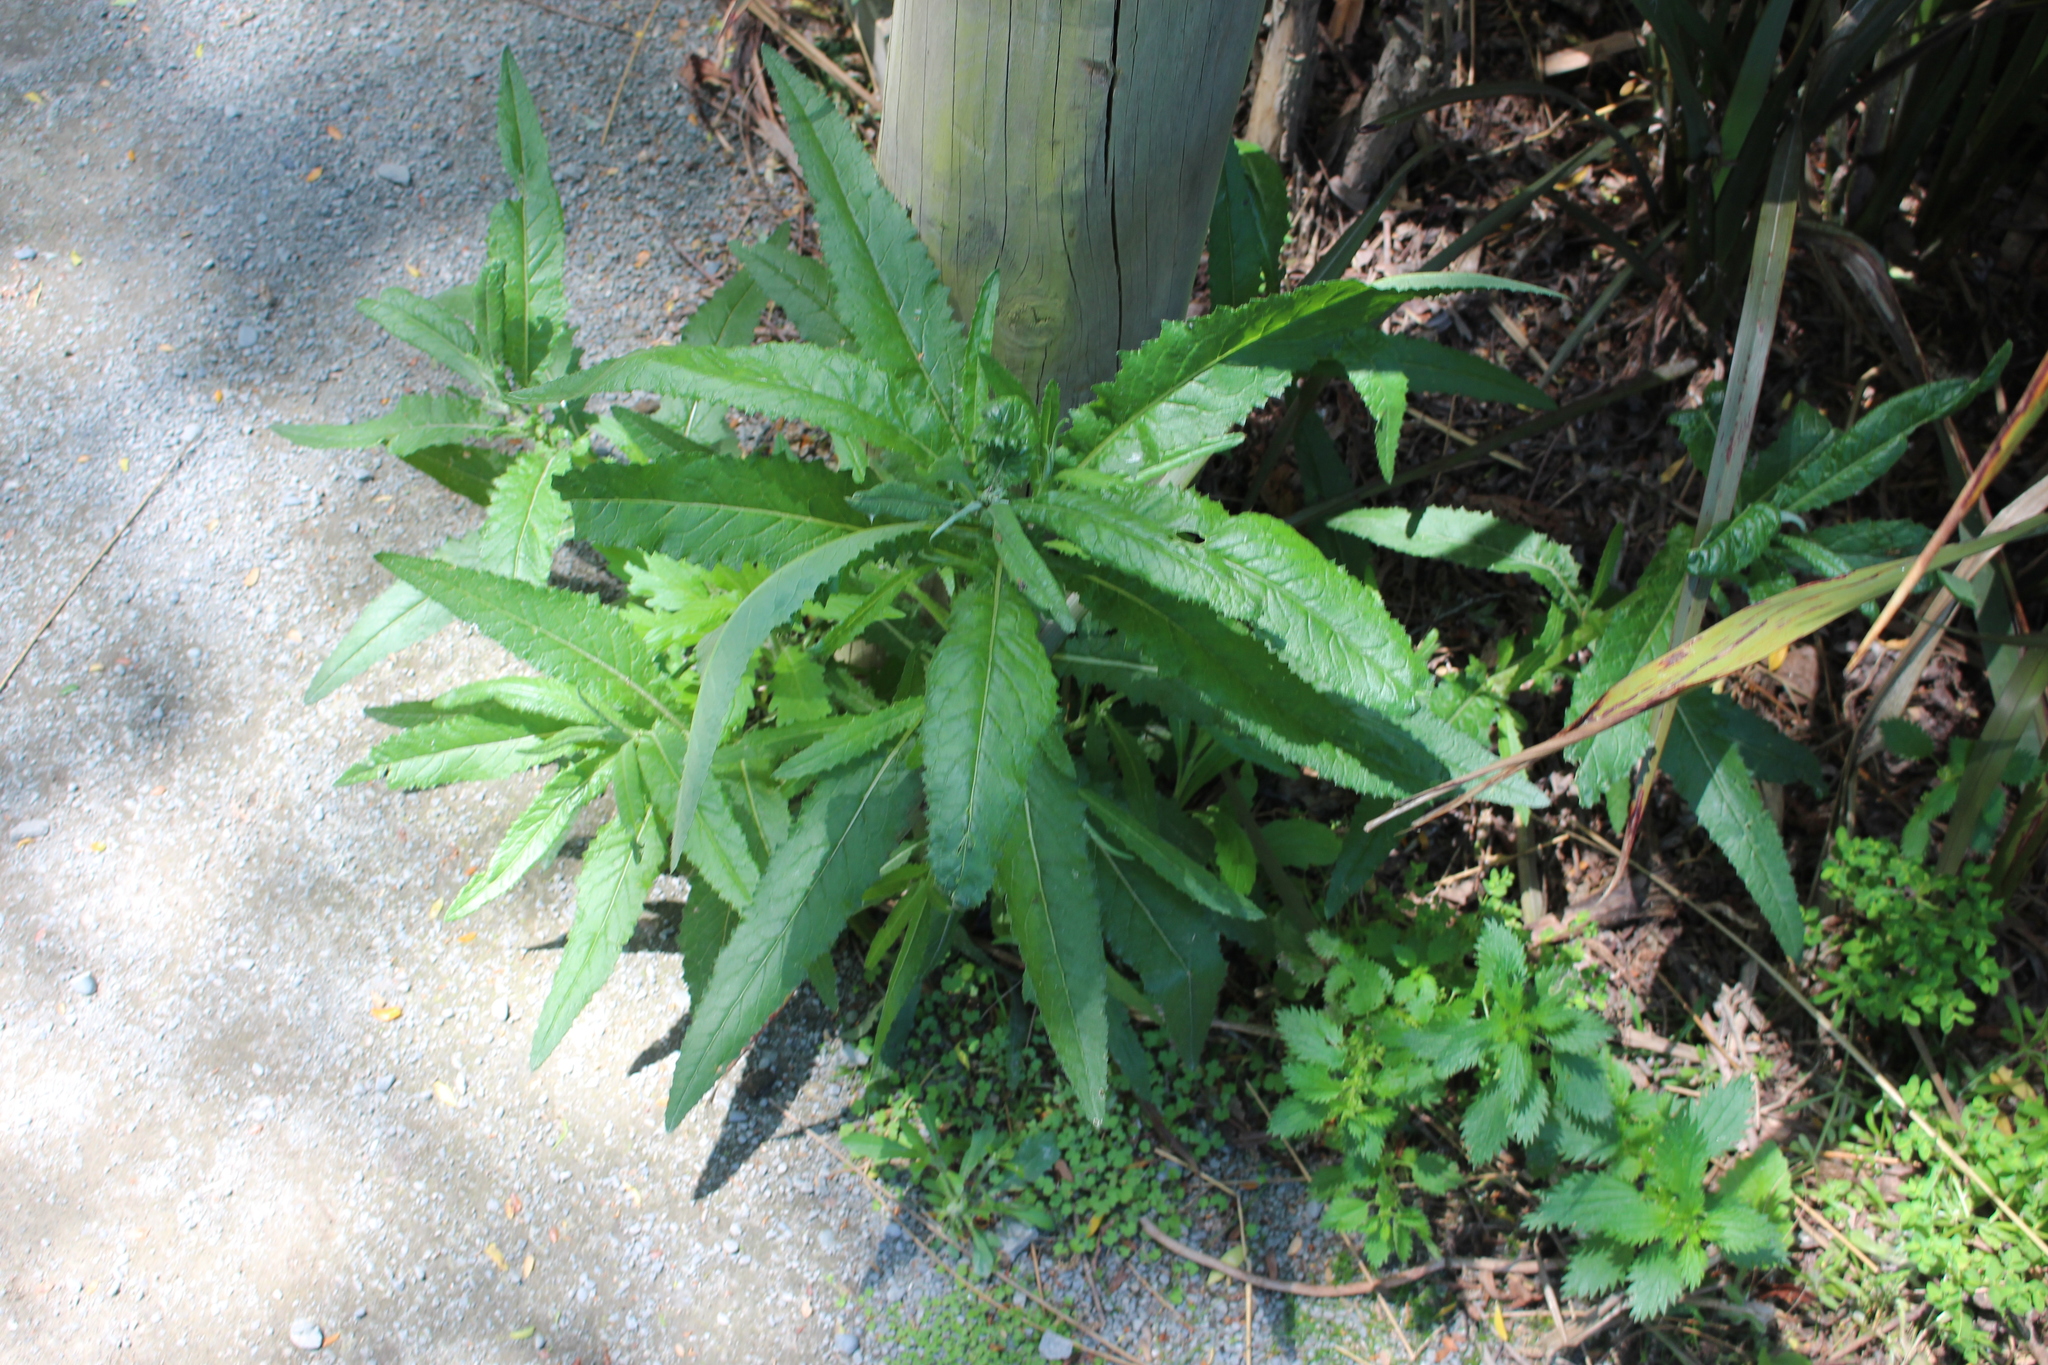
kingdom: Plantae
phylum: Tracheophyta
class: Magnoliopsida
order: Asterales
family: Asteraceae
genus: Senecio
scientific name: Senecio minimus
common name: Toothed fireweed
